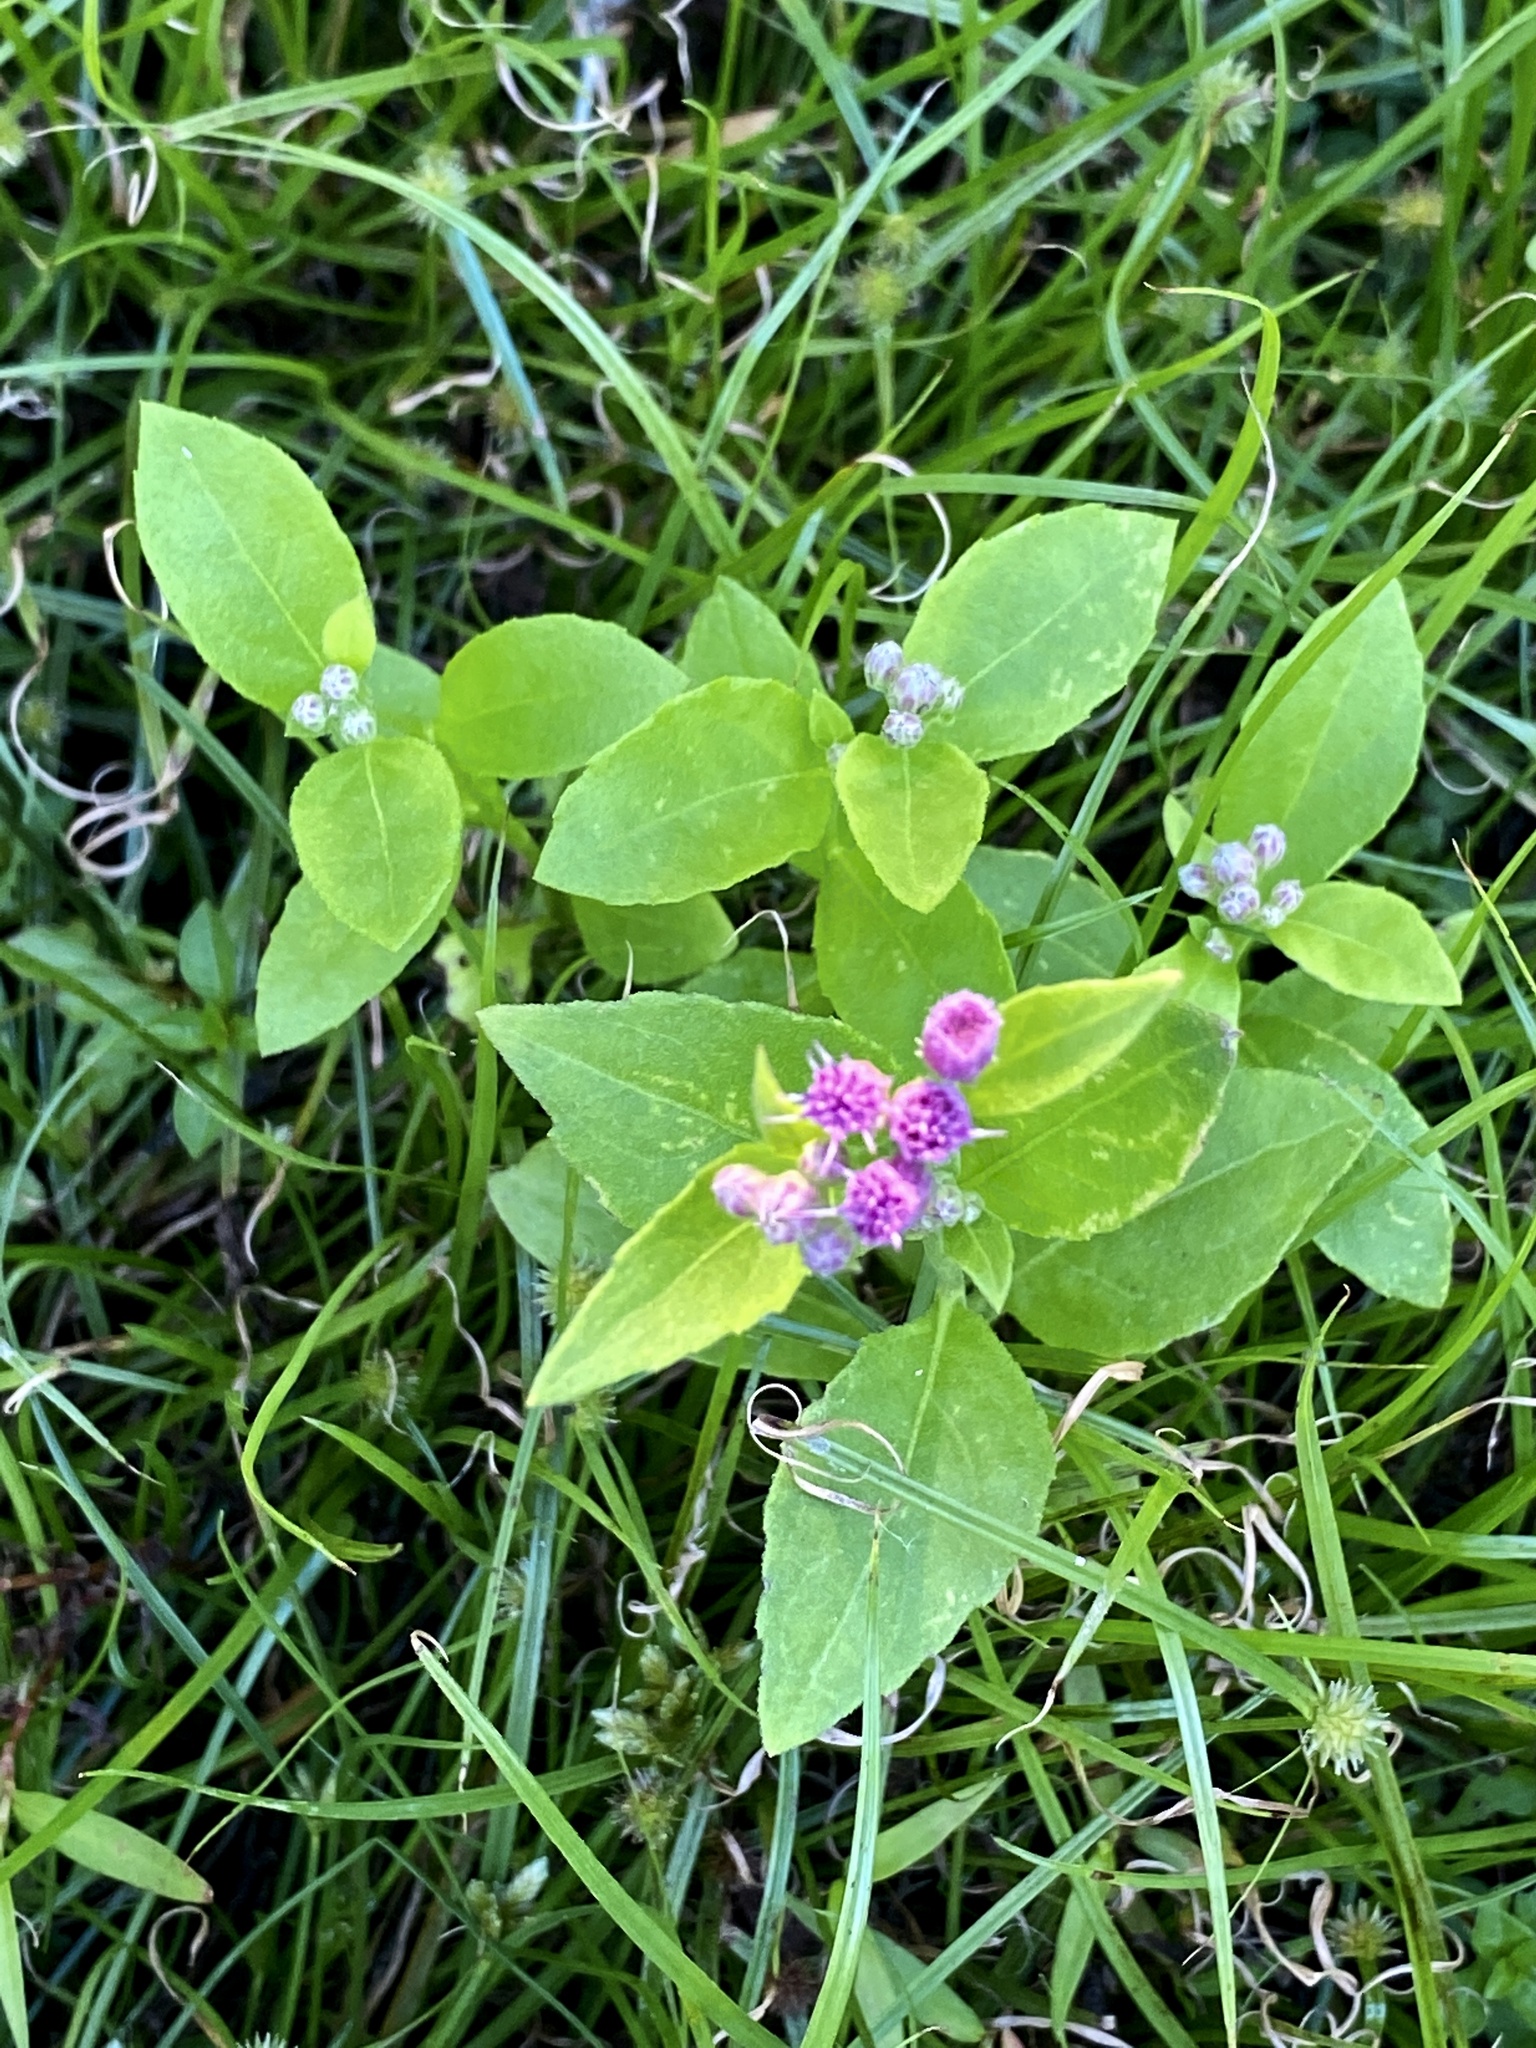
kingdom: Plantae
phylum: Tracheophyta
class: Magnoliopsida
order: Asterales
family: Asteraceae
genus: Pluchea
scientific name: Pluchea odorata
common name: Saltmarsh fleabane
